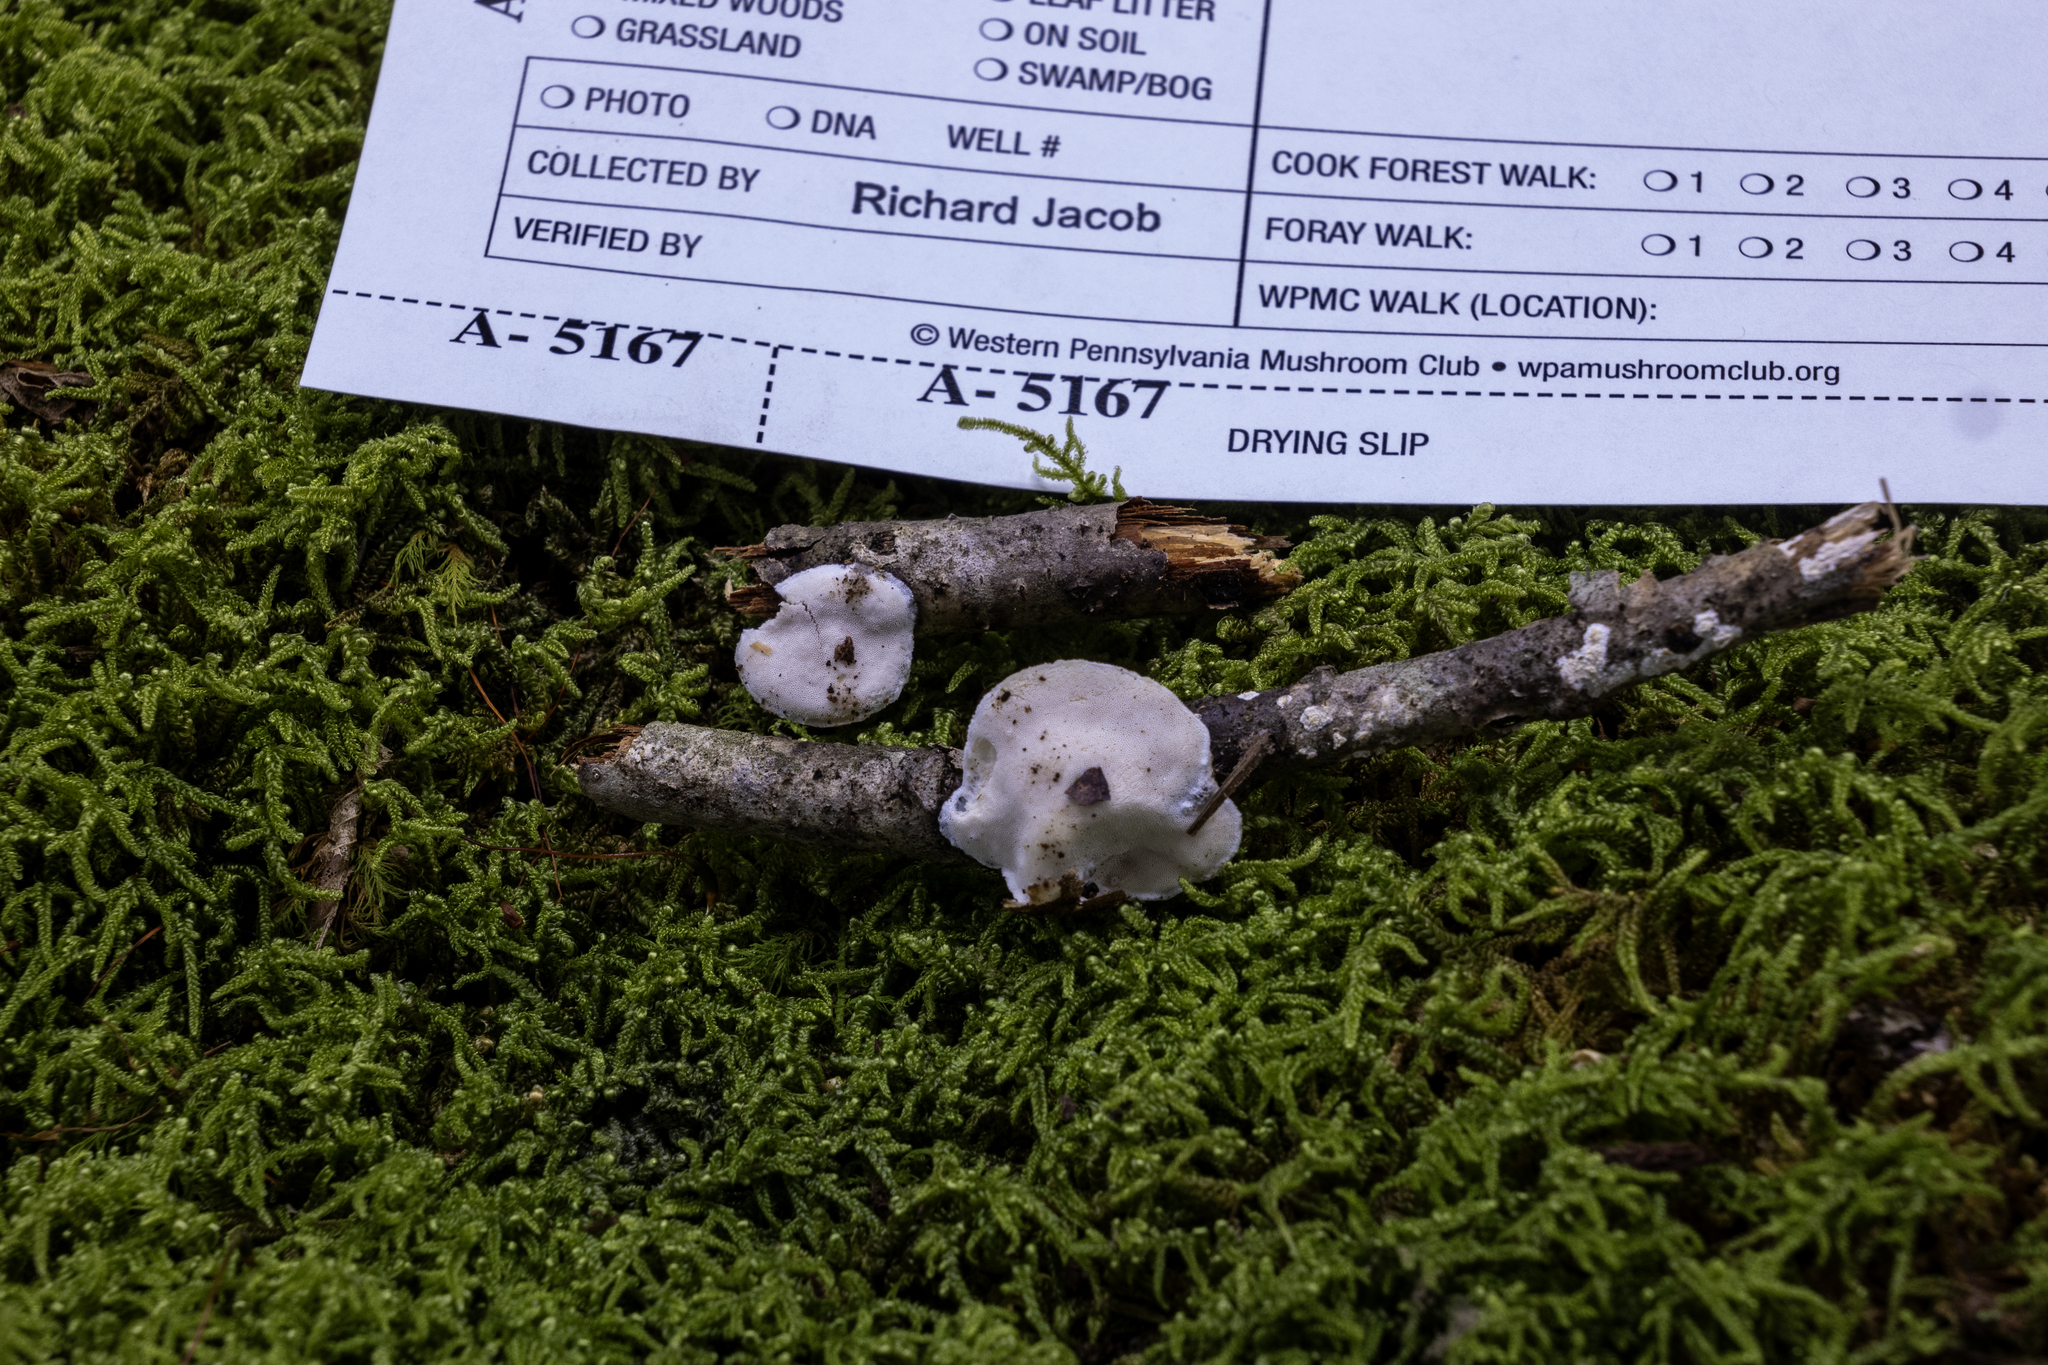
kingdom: Fungi
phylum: Basidiomycota
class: Agaricomycetes
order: Polyporales
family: Incrustoporiaceae
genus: Tyromyces
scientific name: Tyromyces chioneus
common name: White cheese polypore
